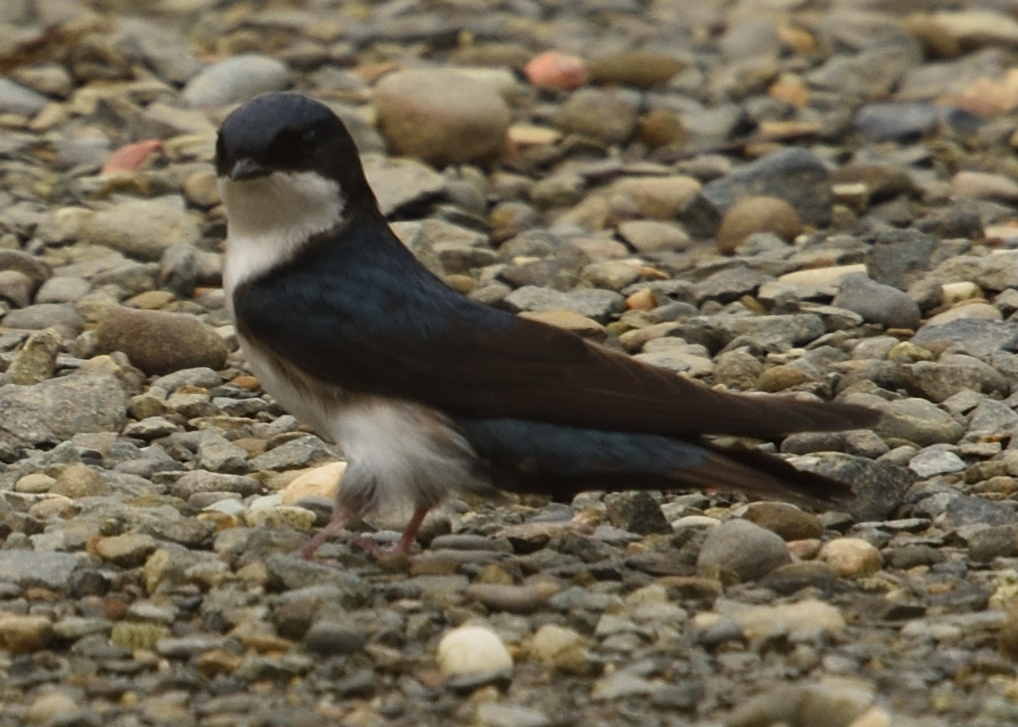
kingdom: Animalia
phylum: Chordata
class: Aves
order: Passeriformes
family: Hirundinidae
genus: Notiochelidon
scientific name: Notiochelidon cyanoleuca
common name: Blue-and-white swallow
